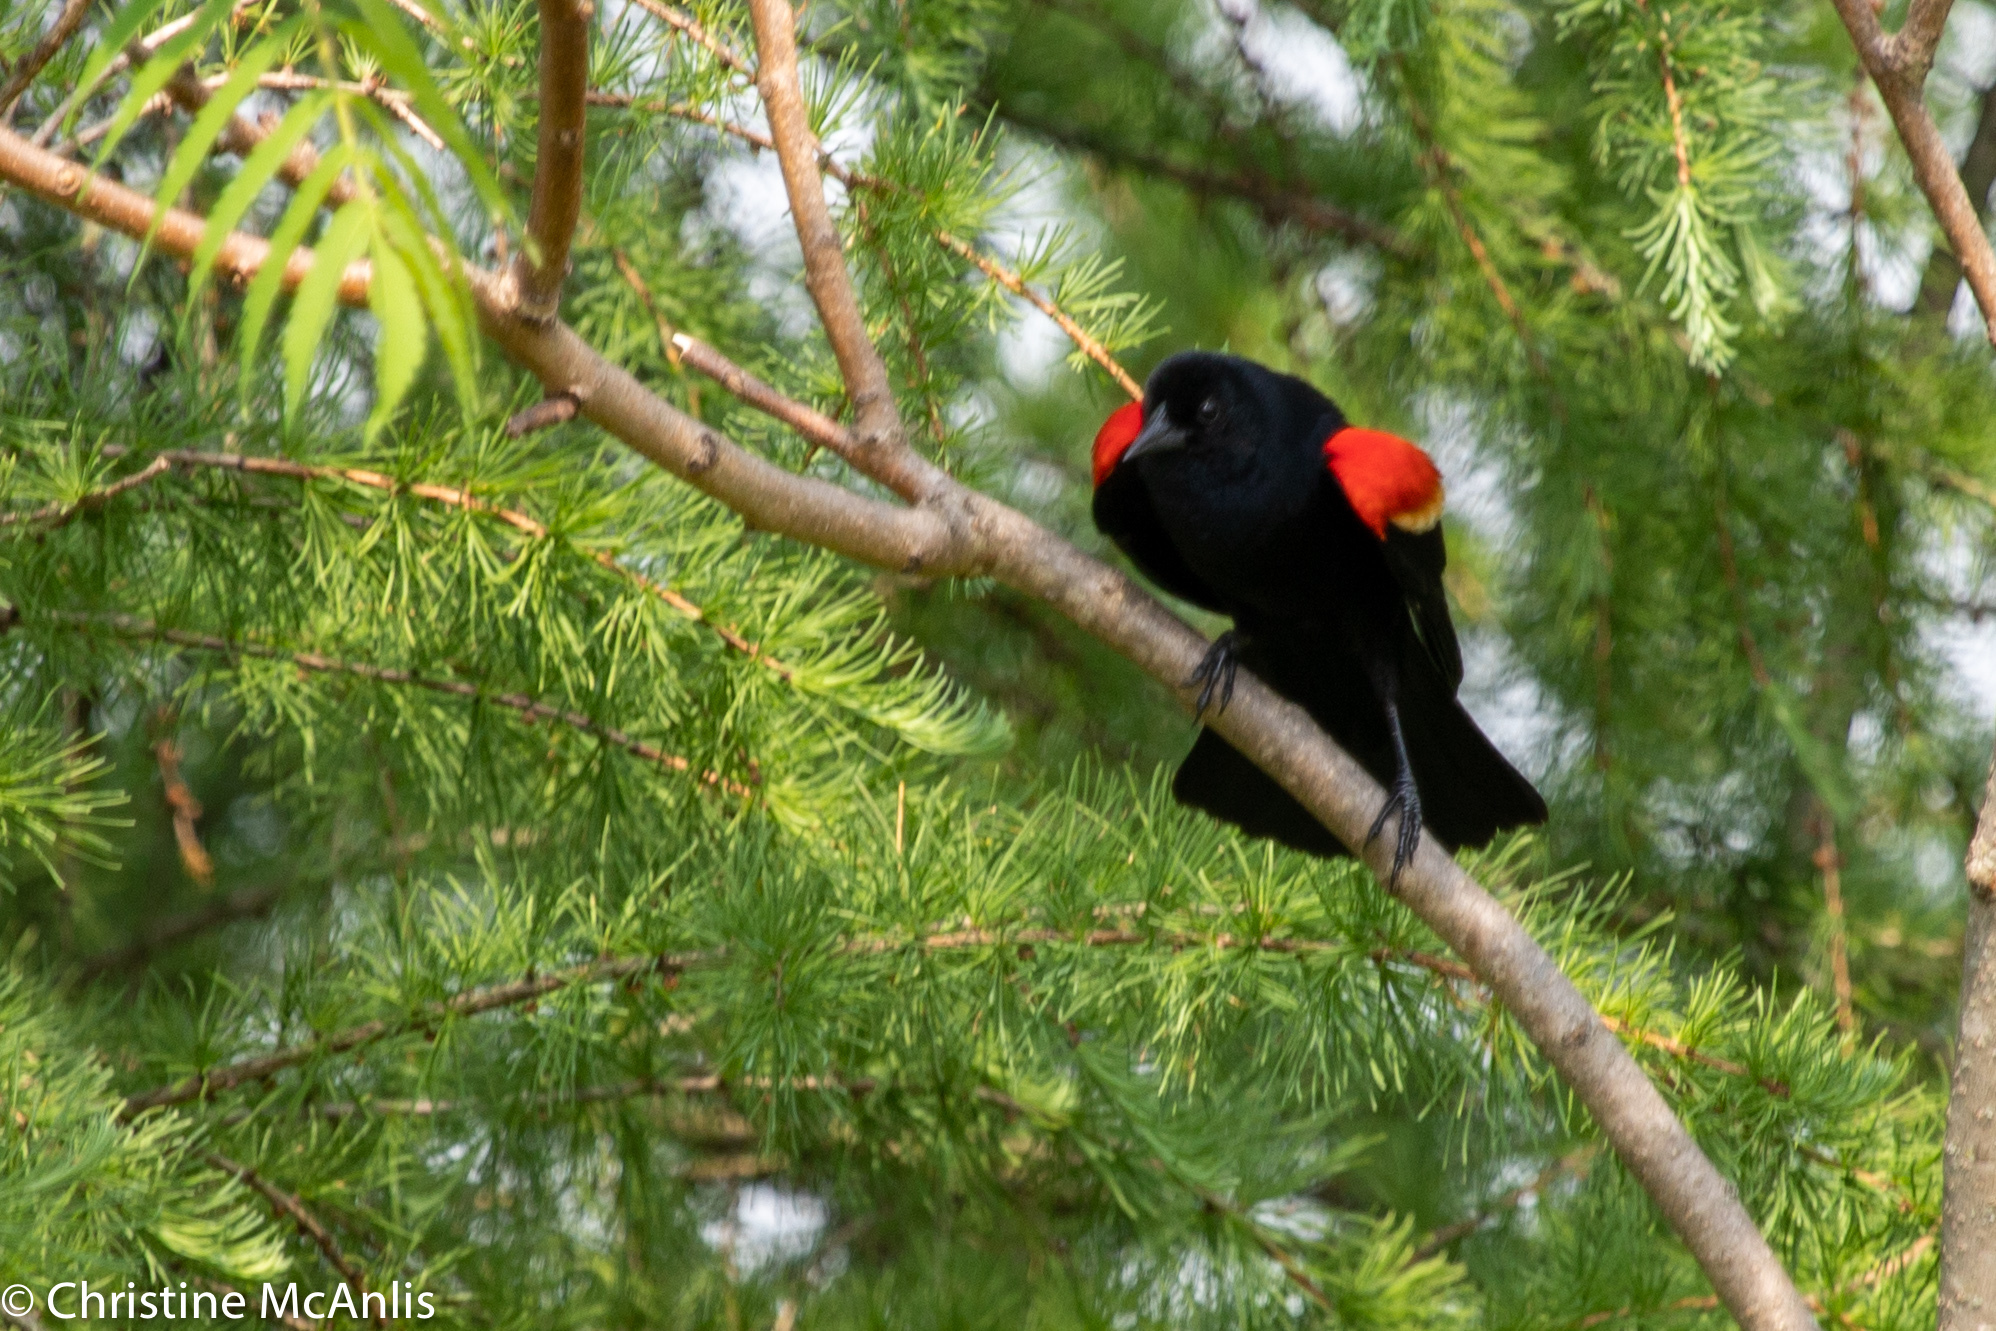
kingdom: Animalia
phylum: Chordata
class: Aves
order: Passeriformes
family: Icteridae
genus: Agelaius
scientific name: Agelaius phoeniceus
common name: Red-winged blackbird
